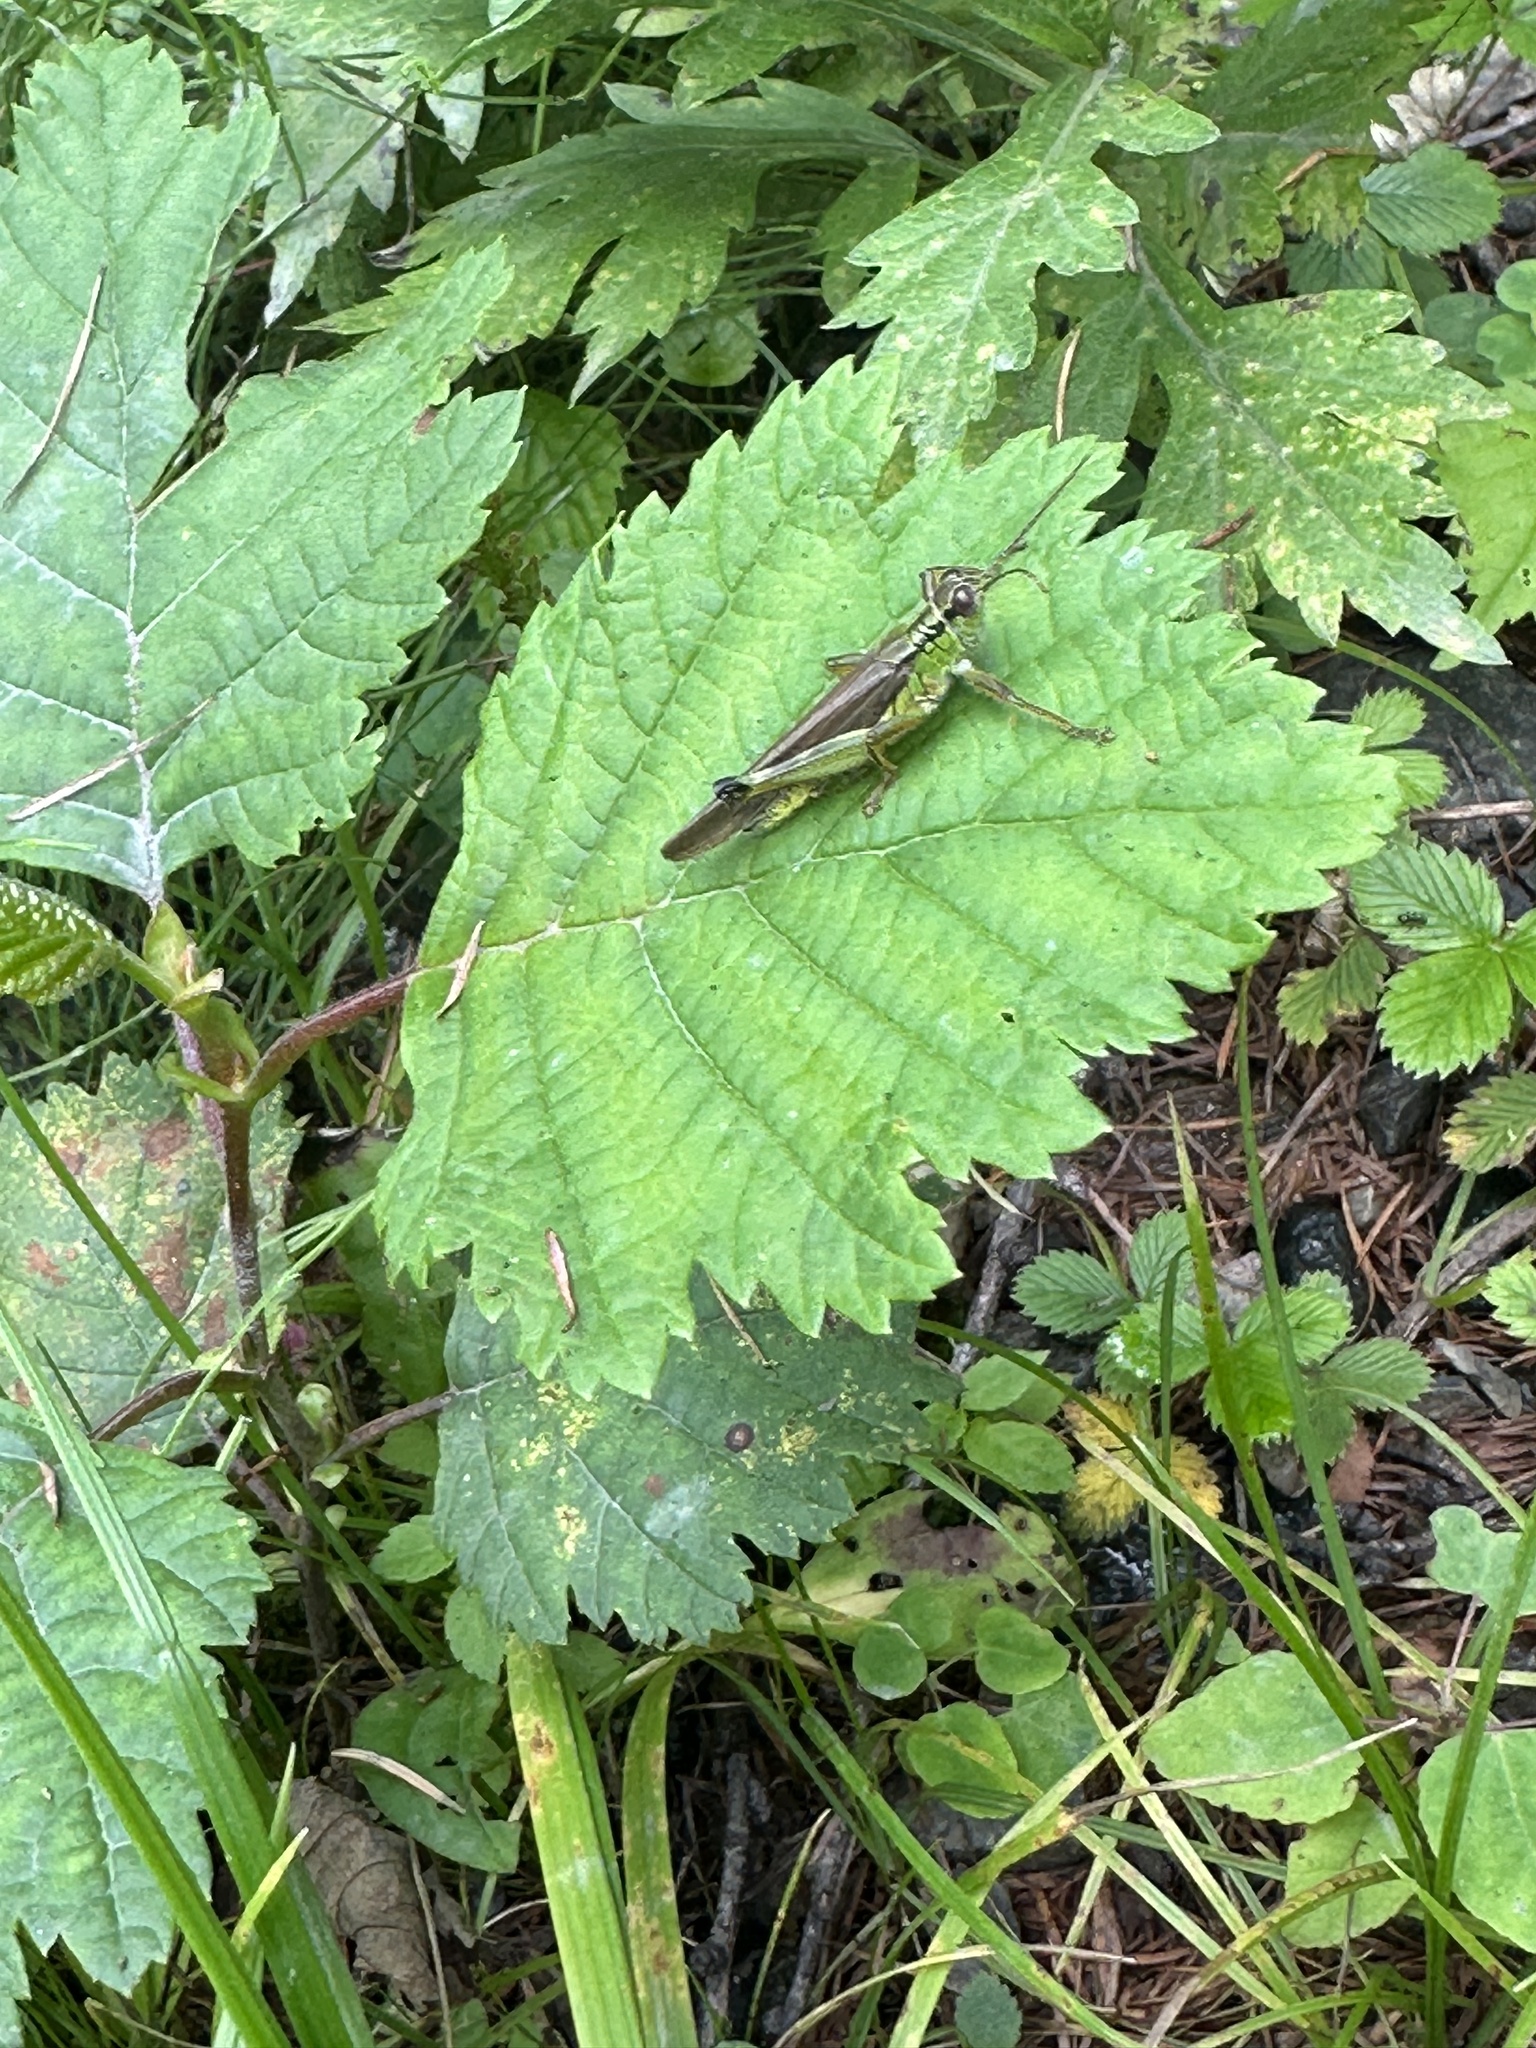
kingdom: Animalia
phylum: Arthropoda
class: Insecta
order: Orthoptera
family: Acrididae
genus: Confusacris
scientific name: Confusacris longipennis
